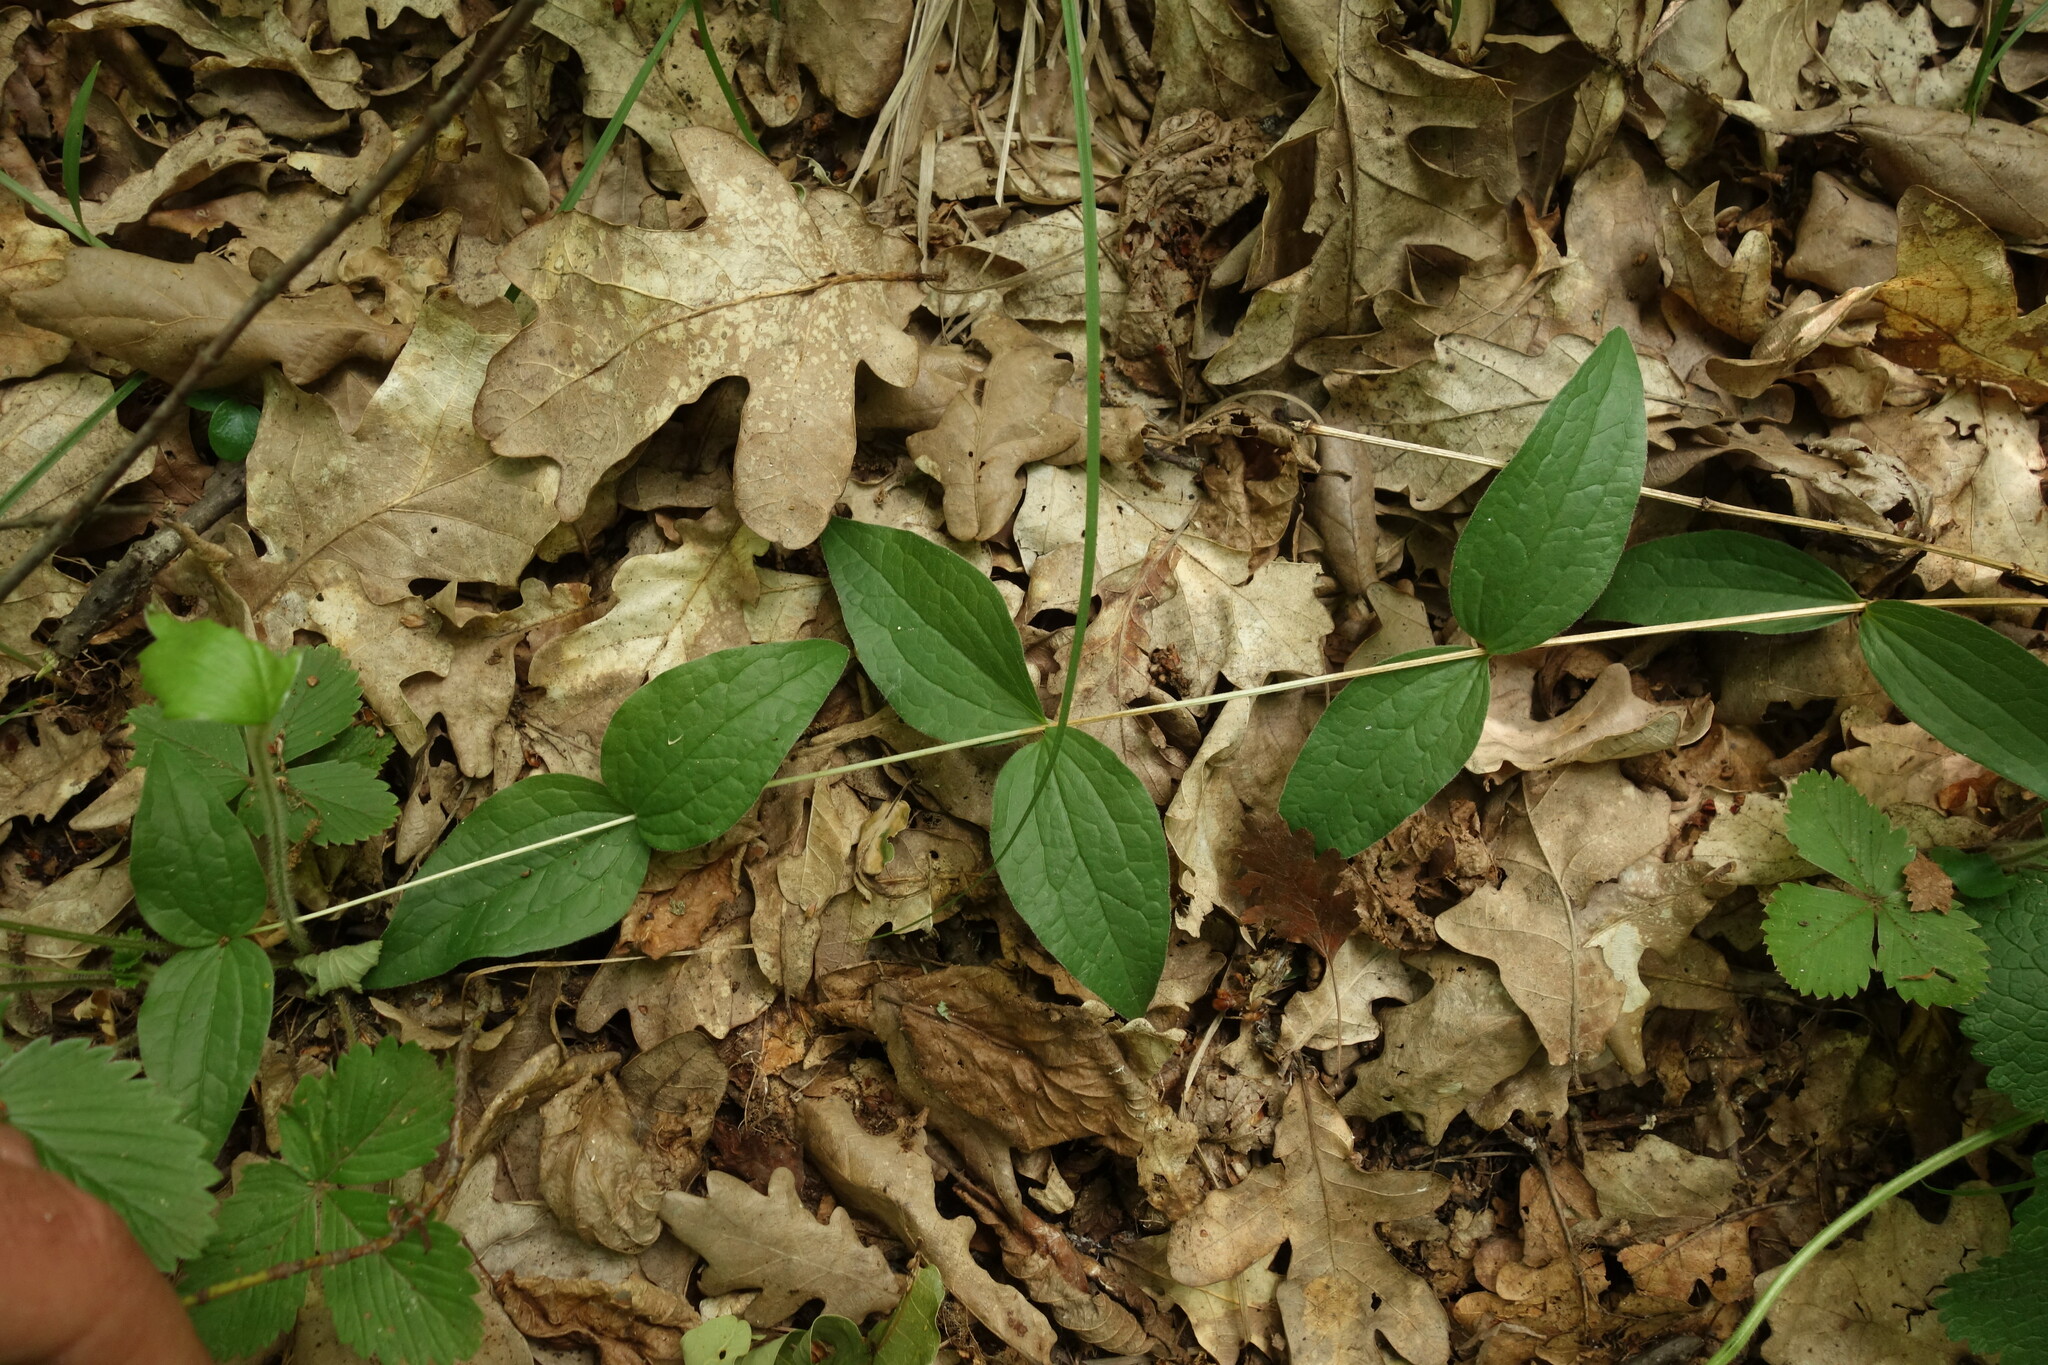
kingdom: Plantae
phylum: Tracheophyta
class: Magnoliopsida
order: Ranunculales
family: Ranunculaceae
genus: Clematis
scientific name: Clematis integrifolia
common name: Solitary clematis
